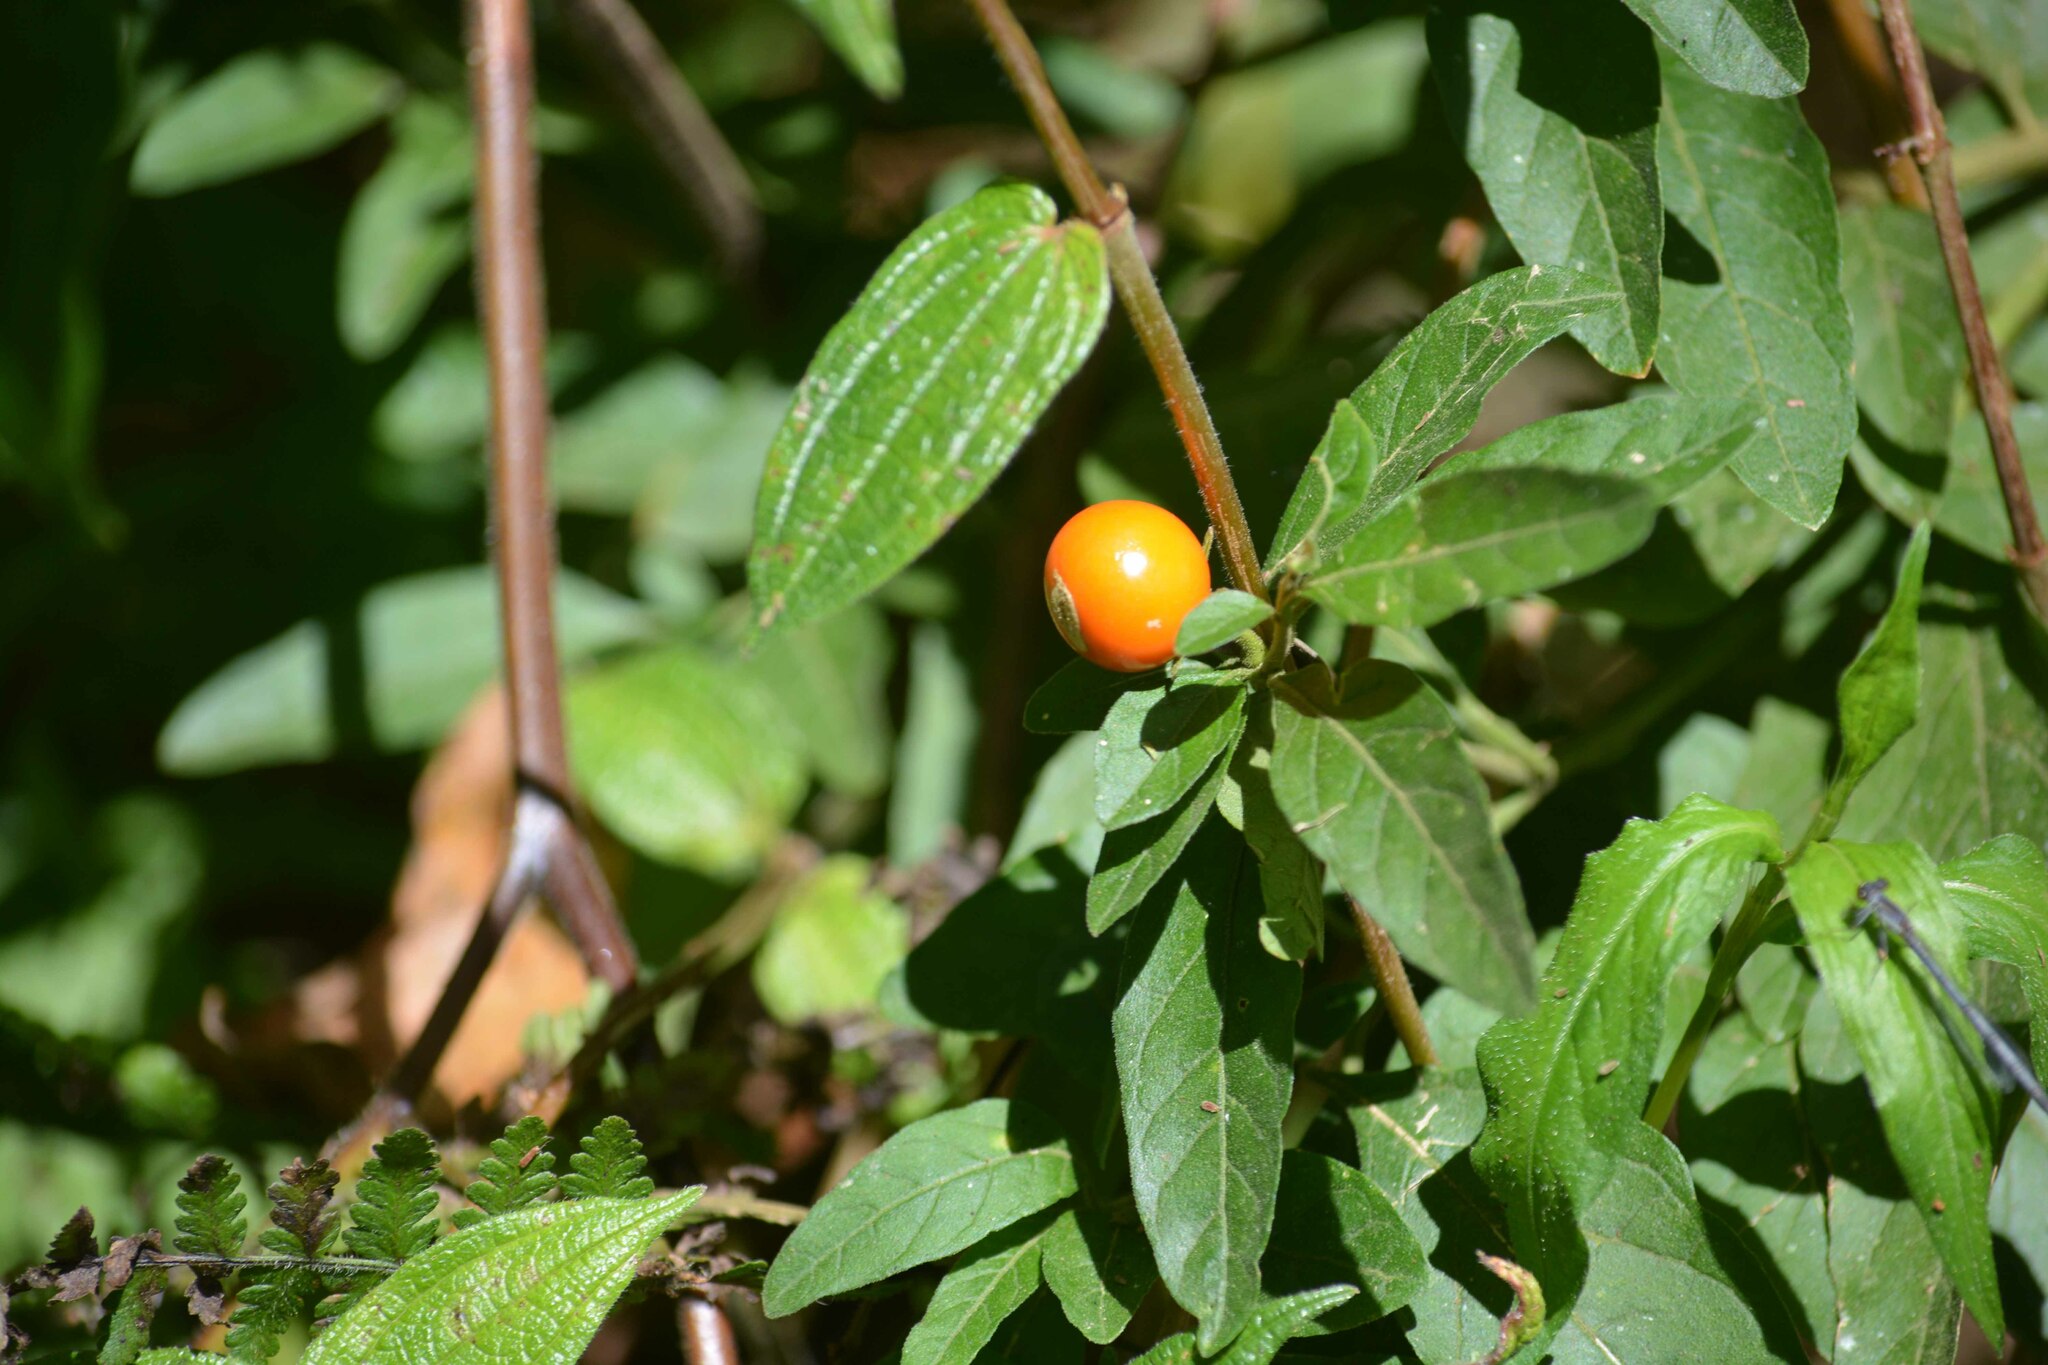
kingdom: Plantae
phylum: Tracheophyta
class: Magnoliopsida
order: Solanales
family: Solanaceae
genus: Solanum
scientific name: Solanum pseudocapsicum
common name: Jerusalem cherry
